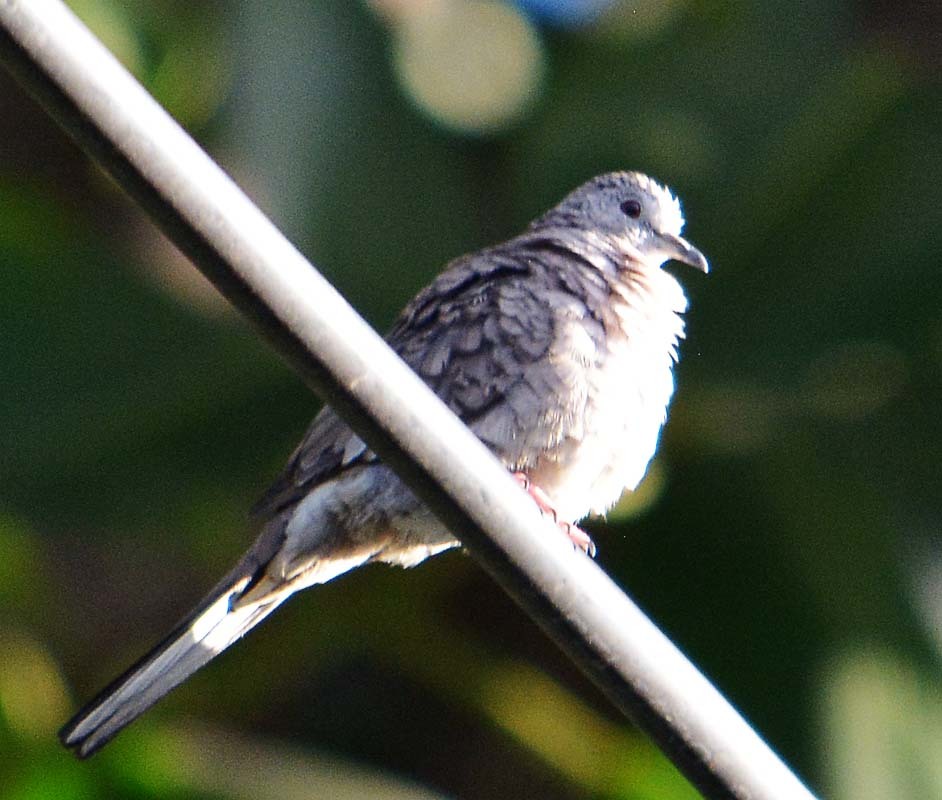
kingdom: Animalia
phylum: Chordata
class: Aves
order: Columbiformes
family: Columbidae
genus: Columbina
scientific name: Columbina inca
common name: Inca dove
